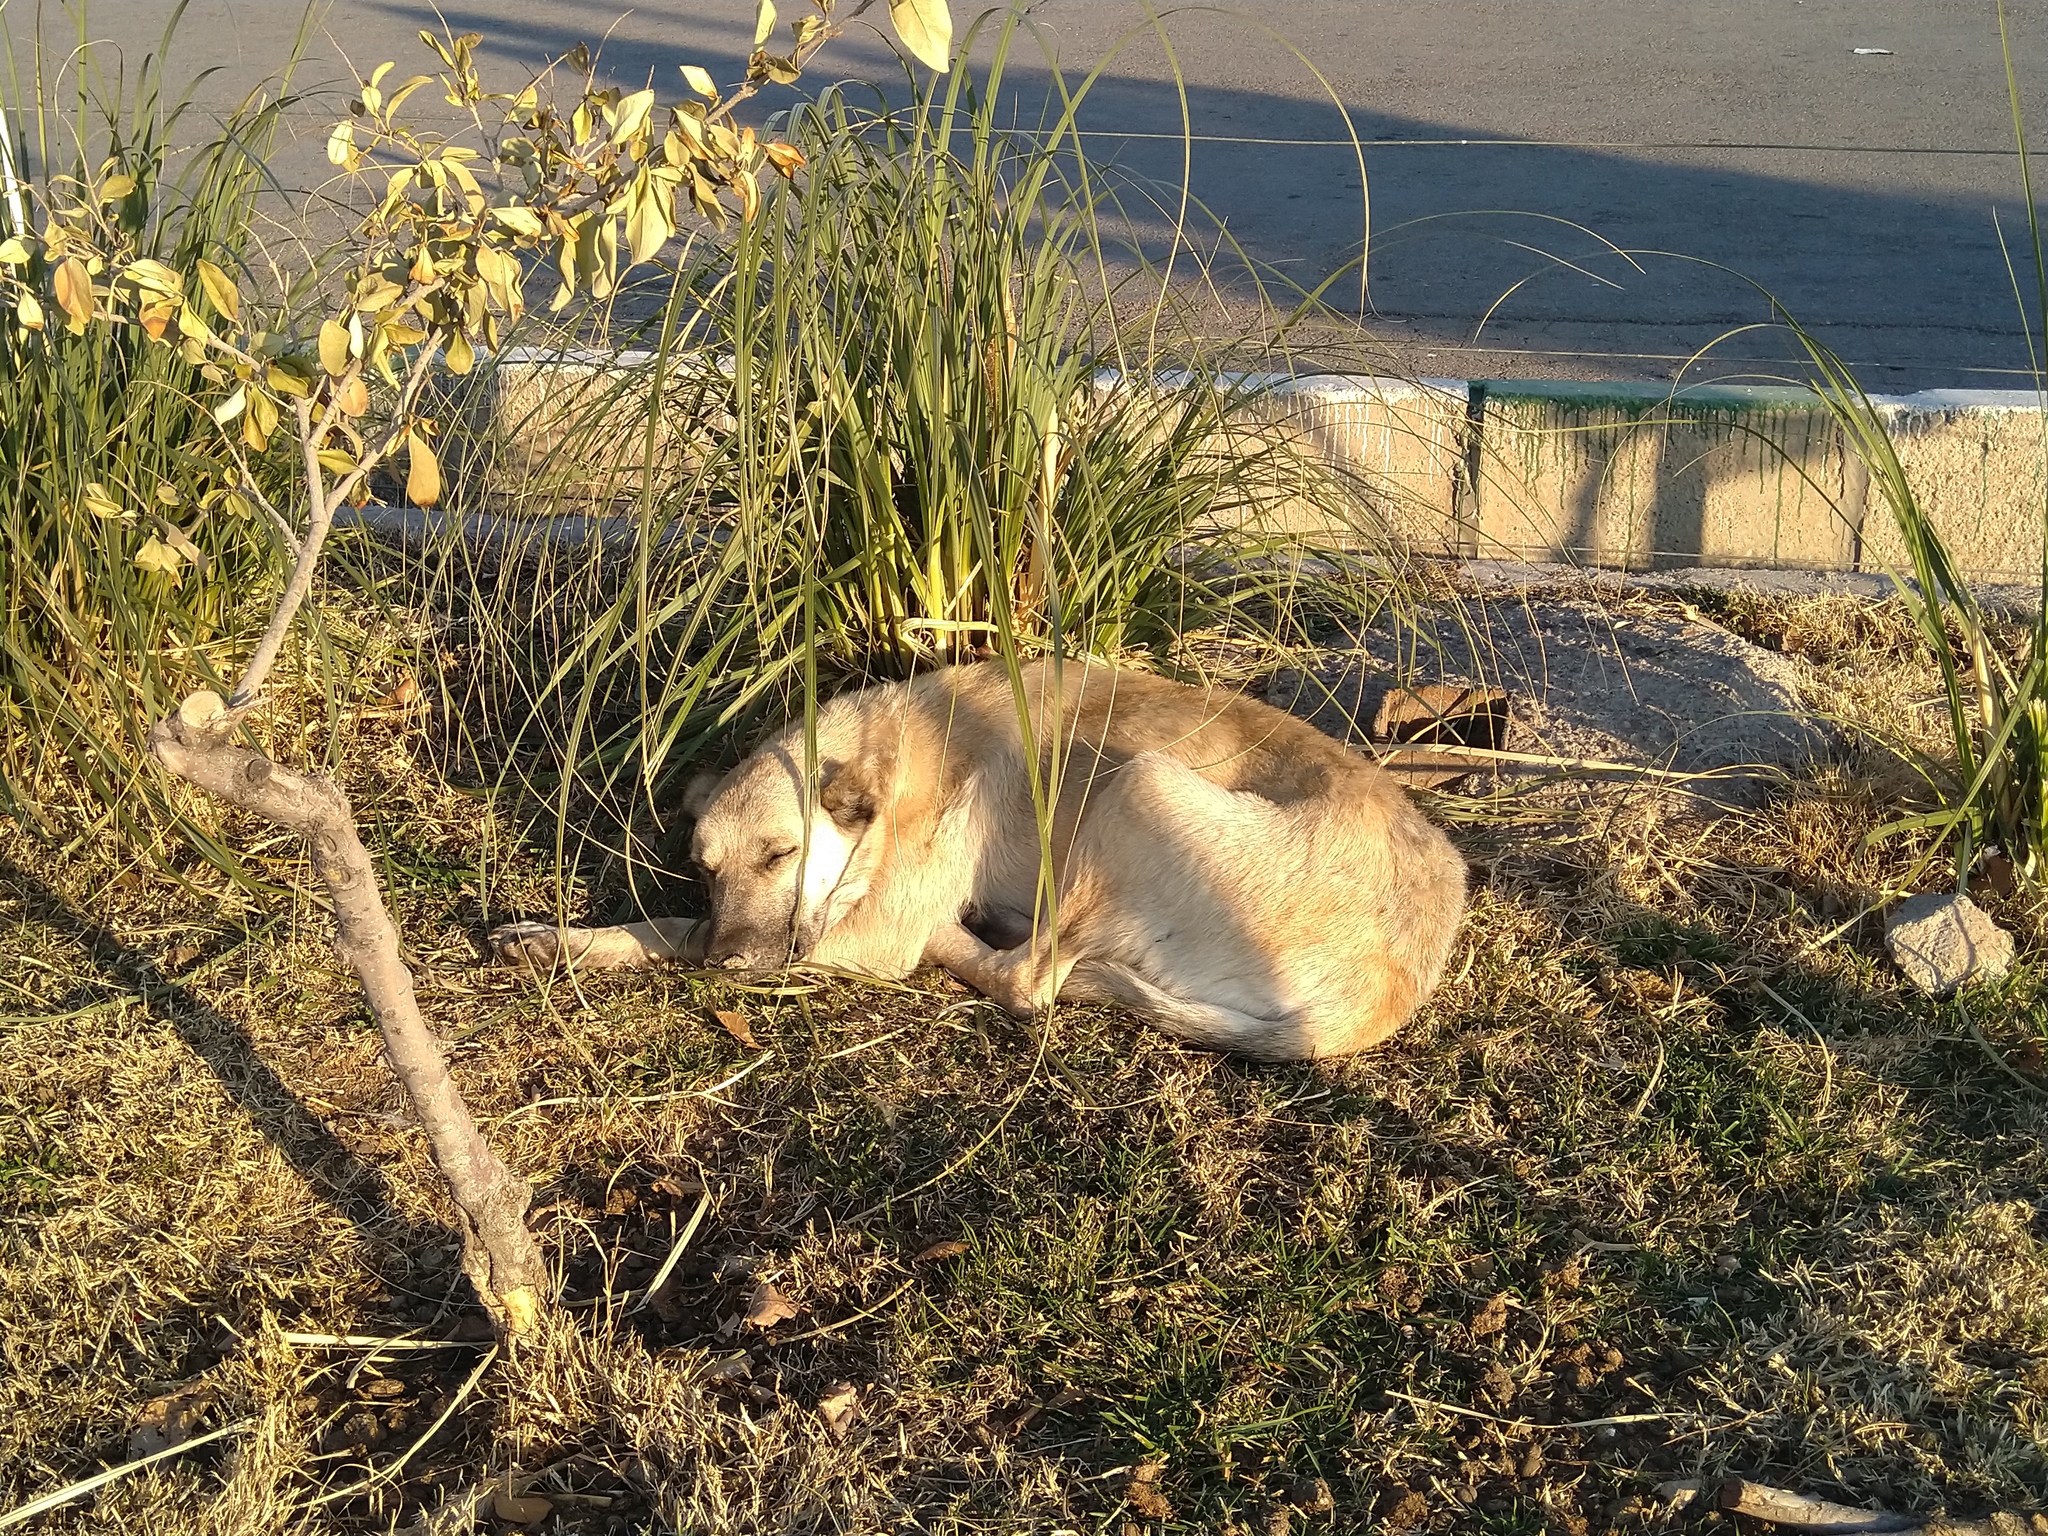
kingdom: Animalia
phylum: Chordata
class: Mammalia
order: Carnivora
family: Canidae
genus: Canis
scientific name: Canis lupus
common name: Gray wolf
